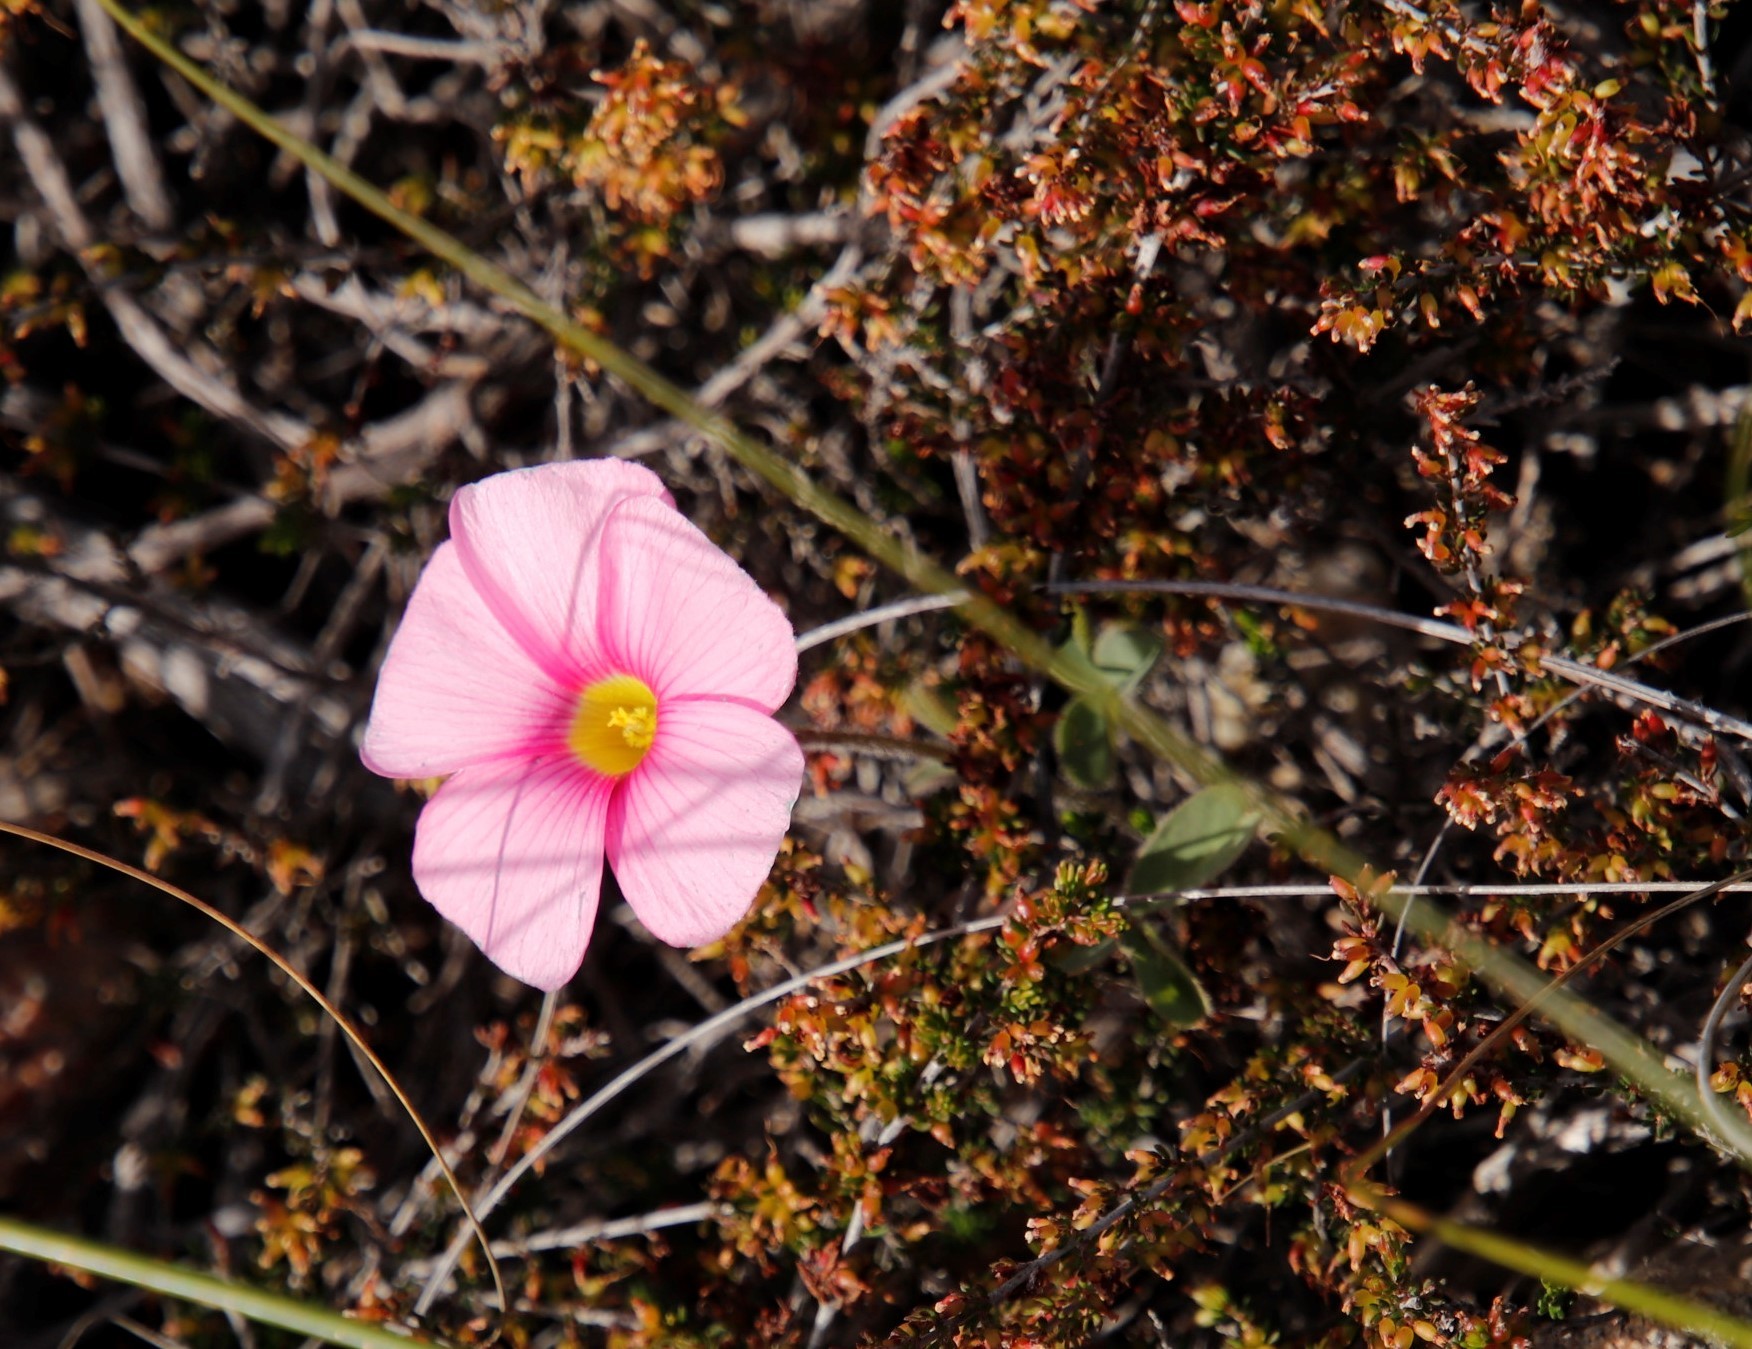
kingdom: Plantae
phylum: Tracheophyta
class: Magnoliopsida
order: Oxalidales
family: Oxalidaceae
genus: Oxalis
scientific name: Oxalis obtusa
